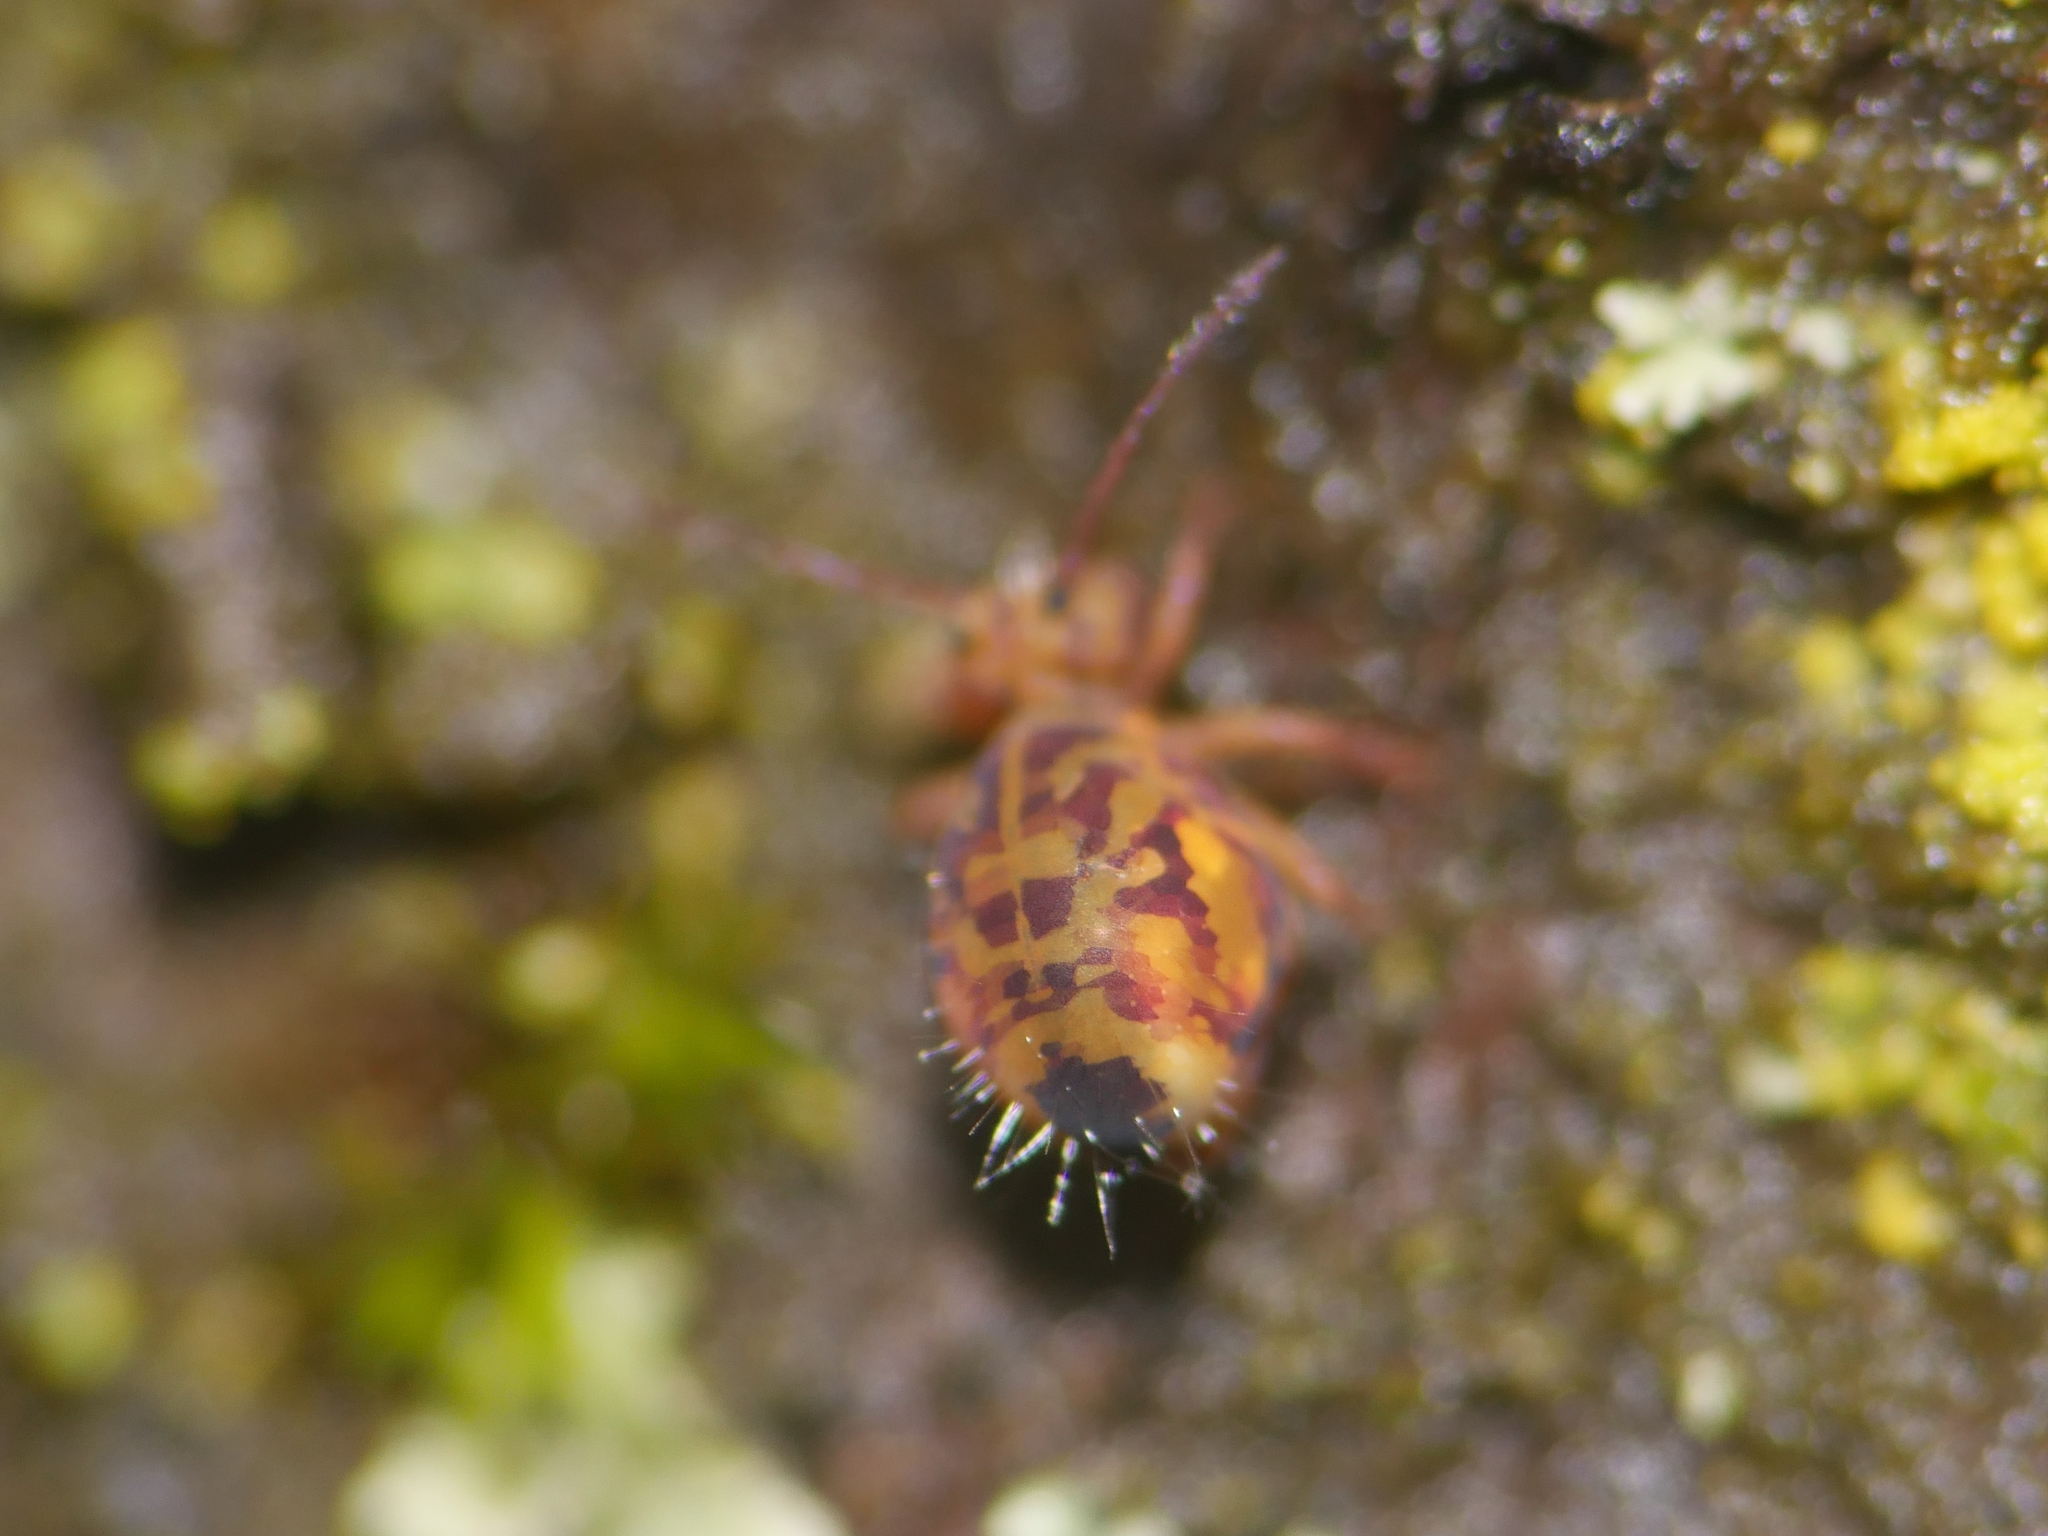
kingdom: Animalia
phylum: Arthropoda
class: Collembola
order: Symphypleona
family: Dicyrtomidae
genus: Dicyrtomina
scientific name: Dicyrtomina ornata
